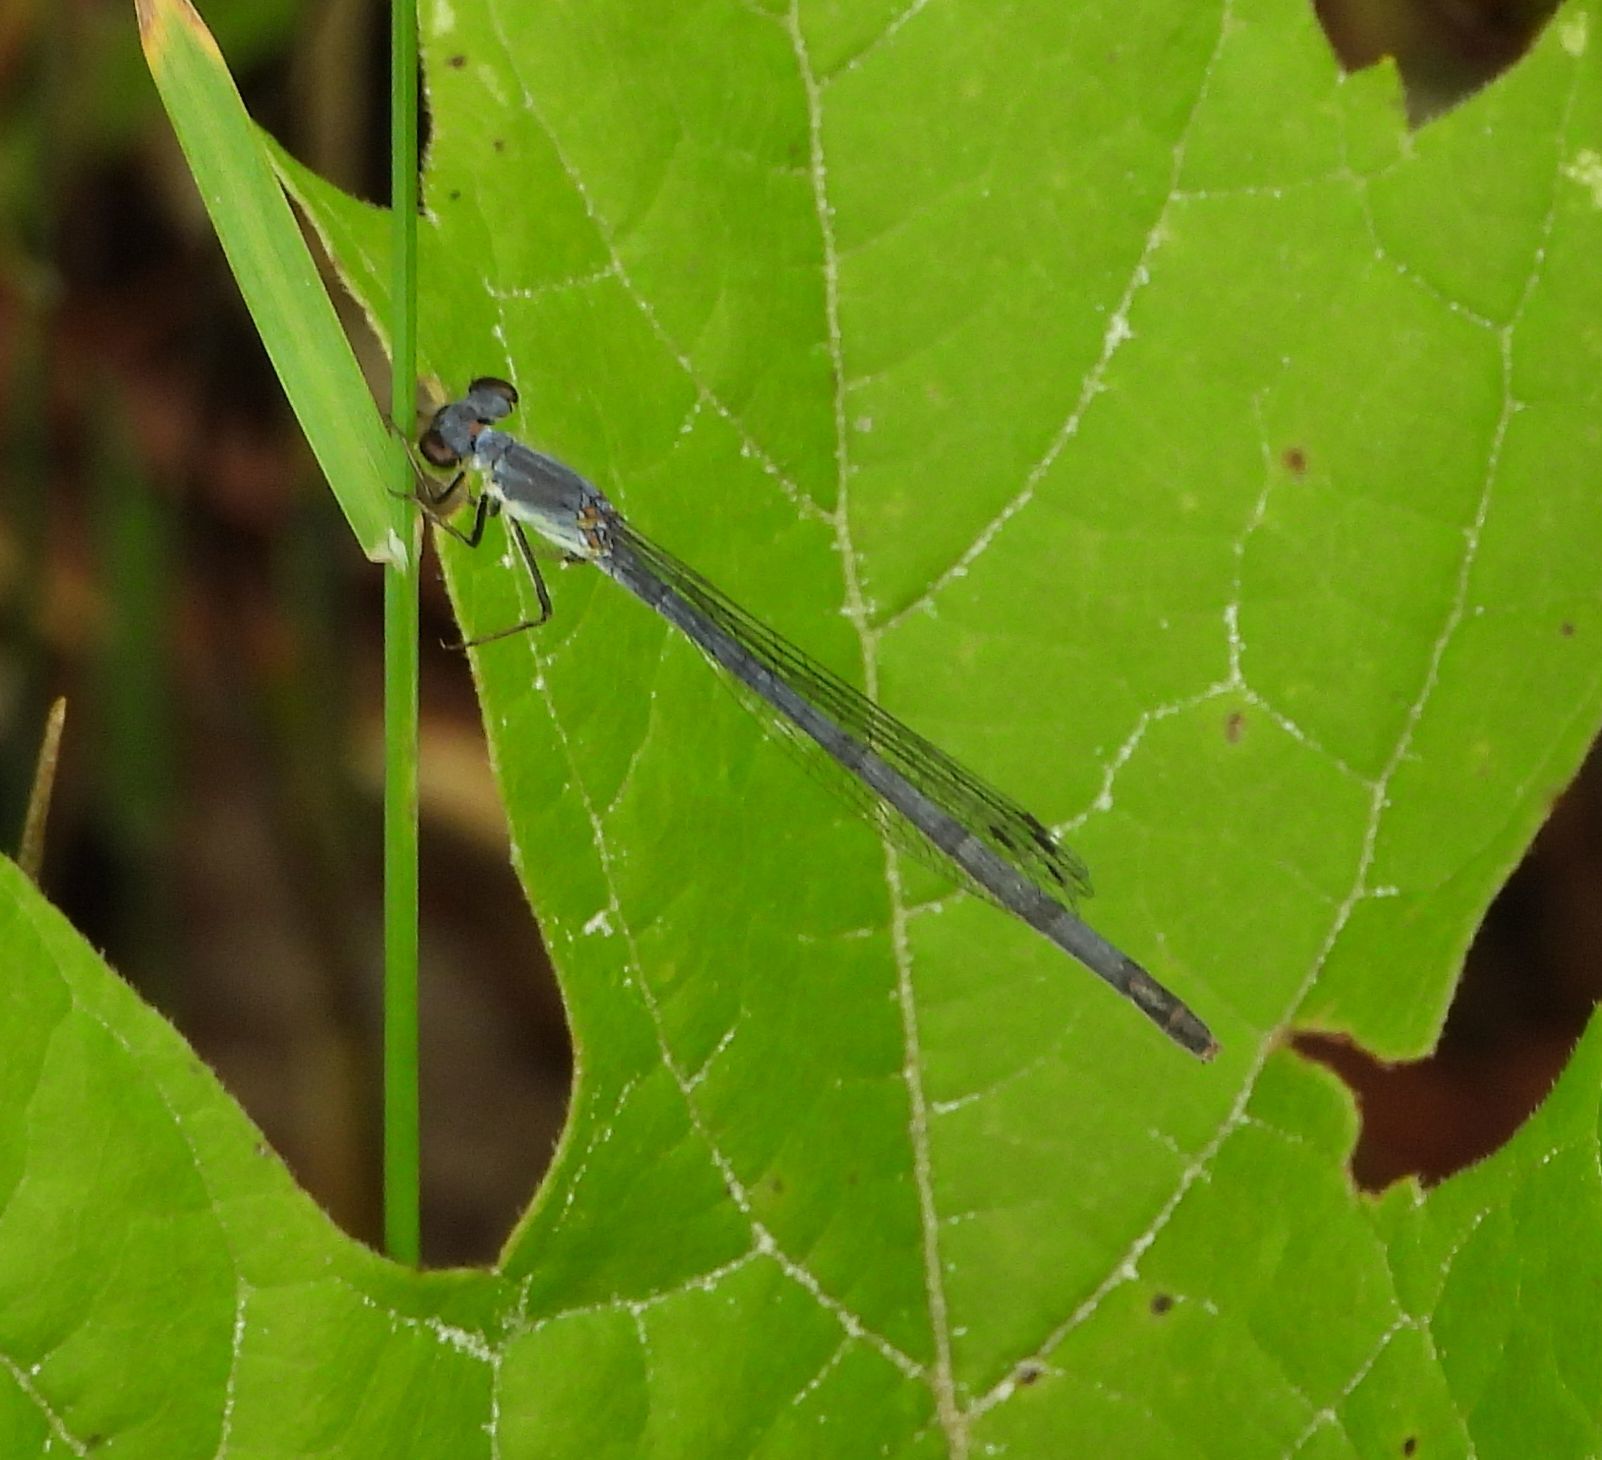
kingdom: Animalia
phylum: Arthropoda
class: Insecta
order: Odonata
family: Coenagrionidae
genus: Ischnura
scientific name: Ischnura posita
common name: Fragile forktail
